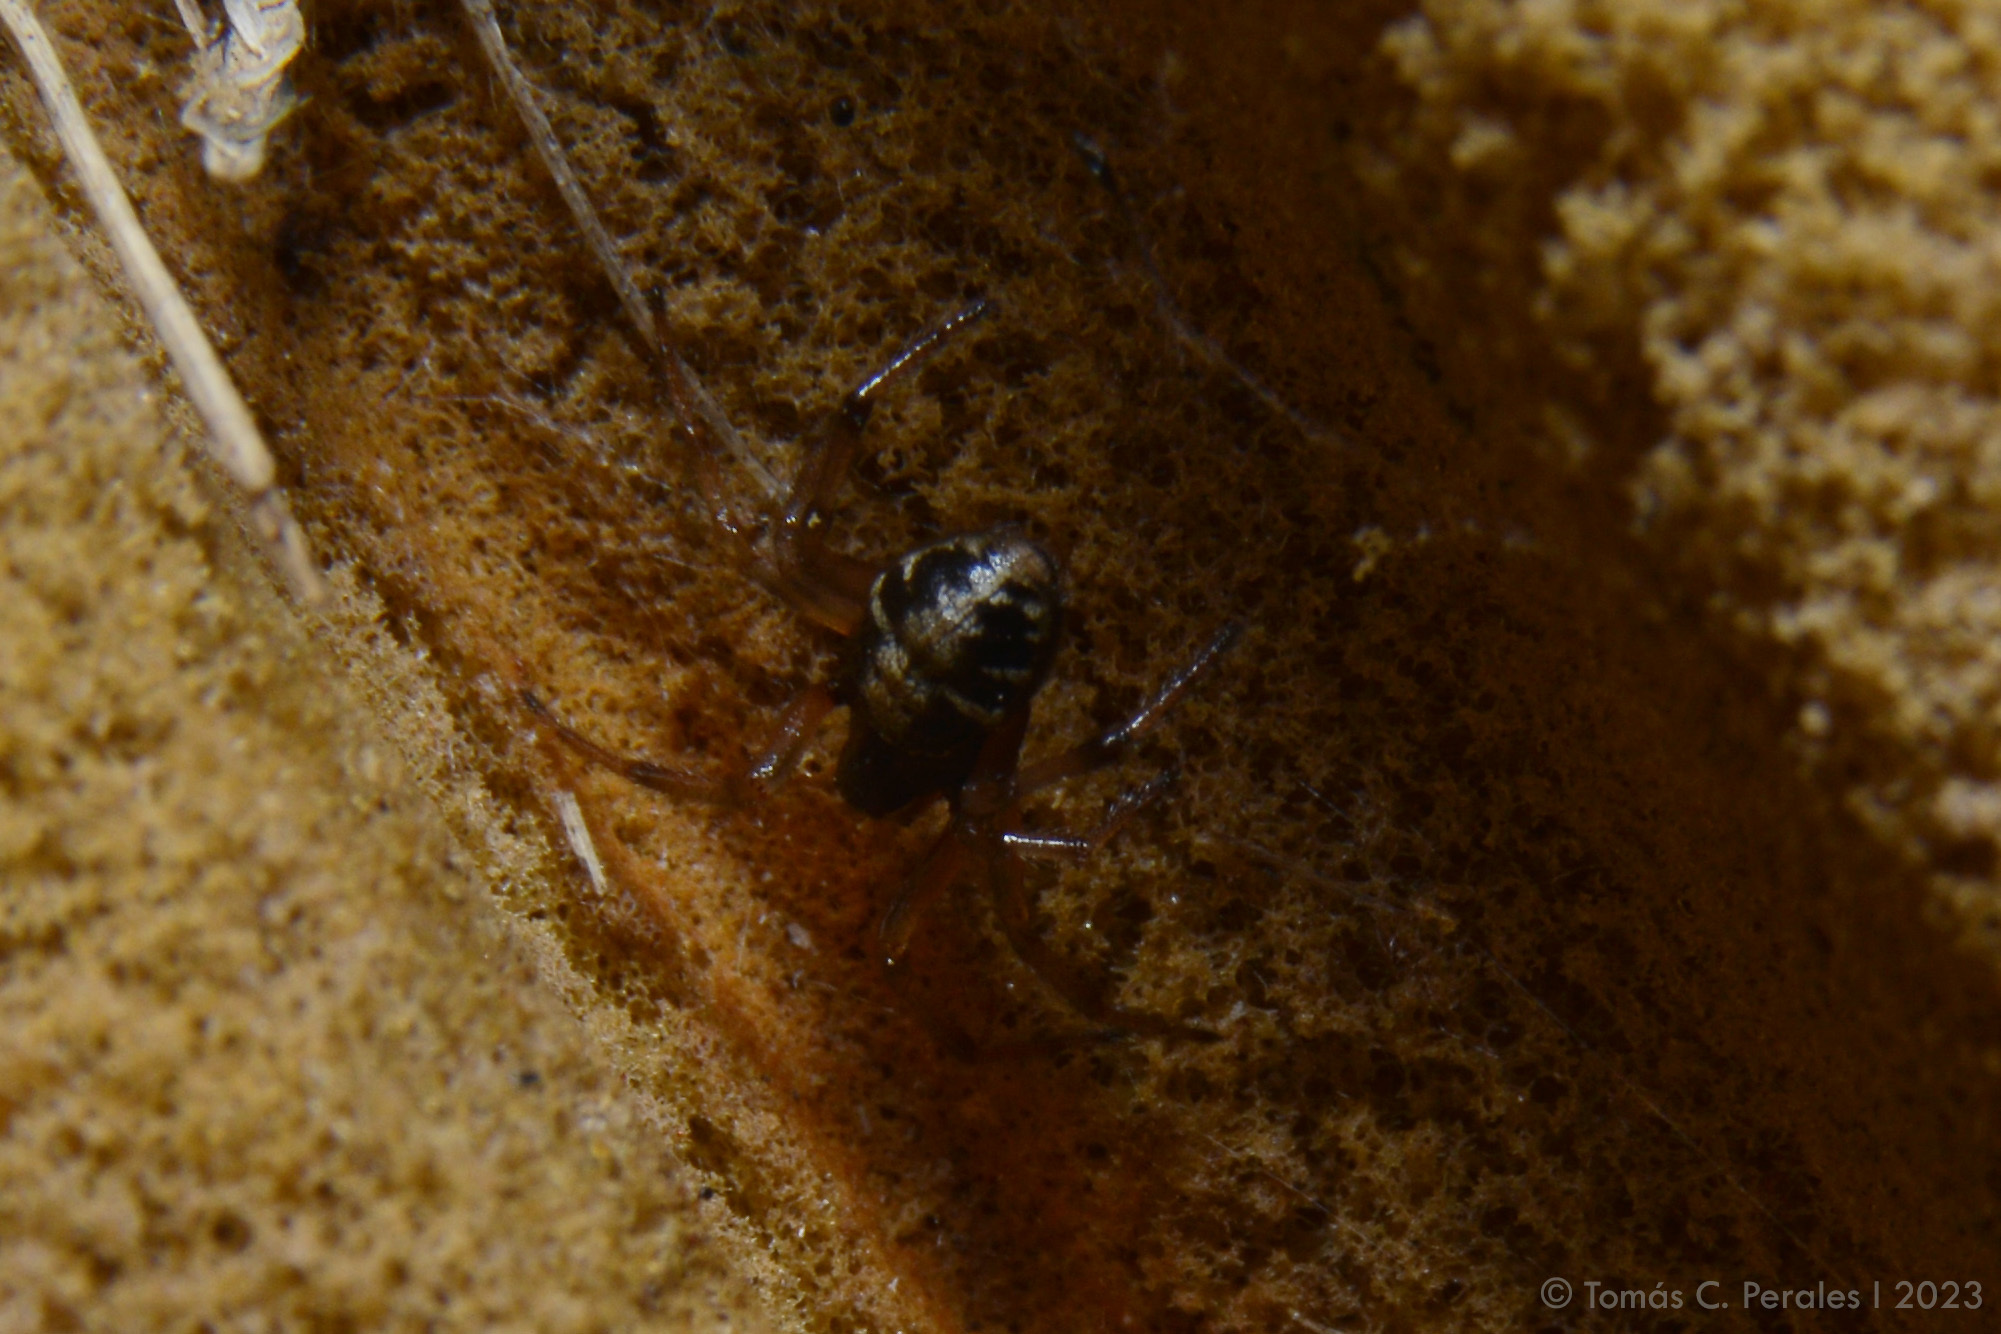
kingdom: Animalia
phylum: Arthropoda
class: Arachnida
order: Araneae
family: Theridiidae
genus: Steatoda
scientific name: Steatoda ancorata
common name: Cobweb spiders
